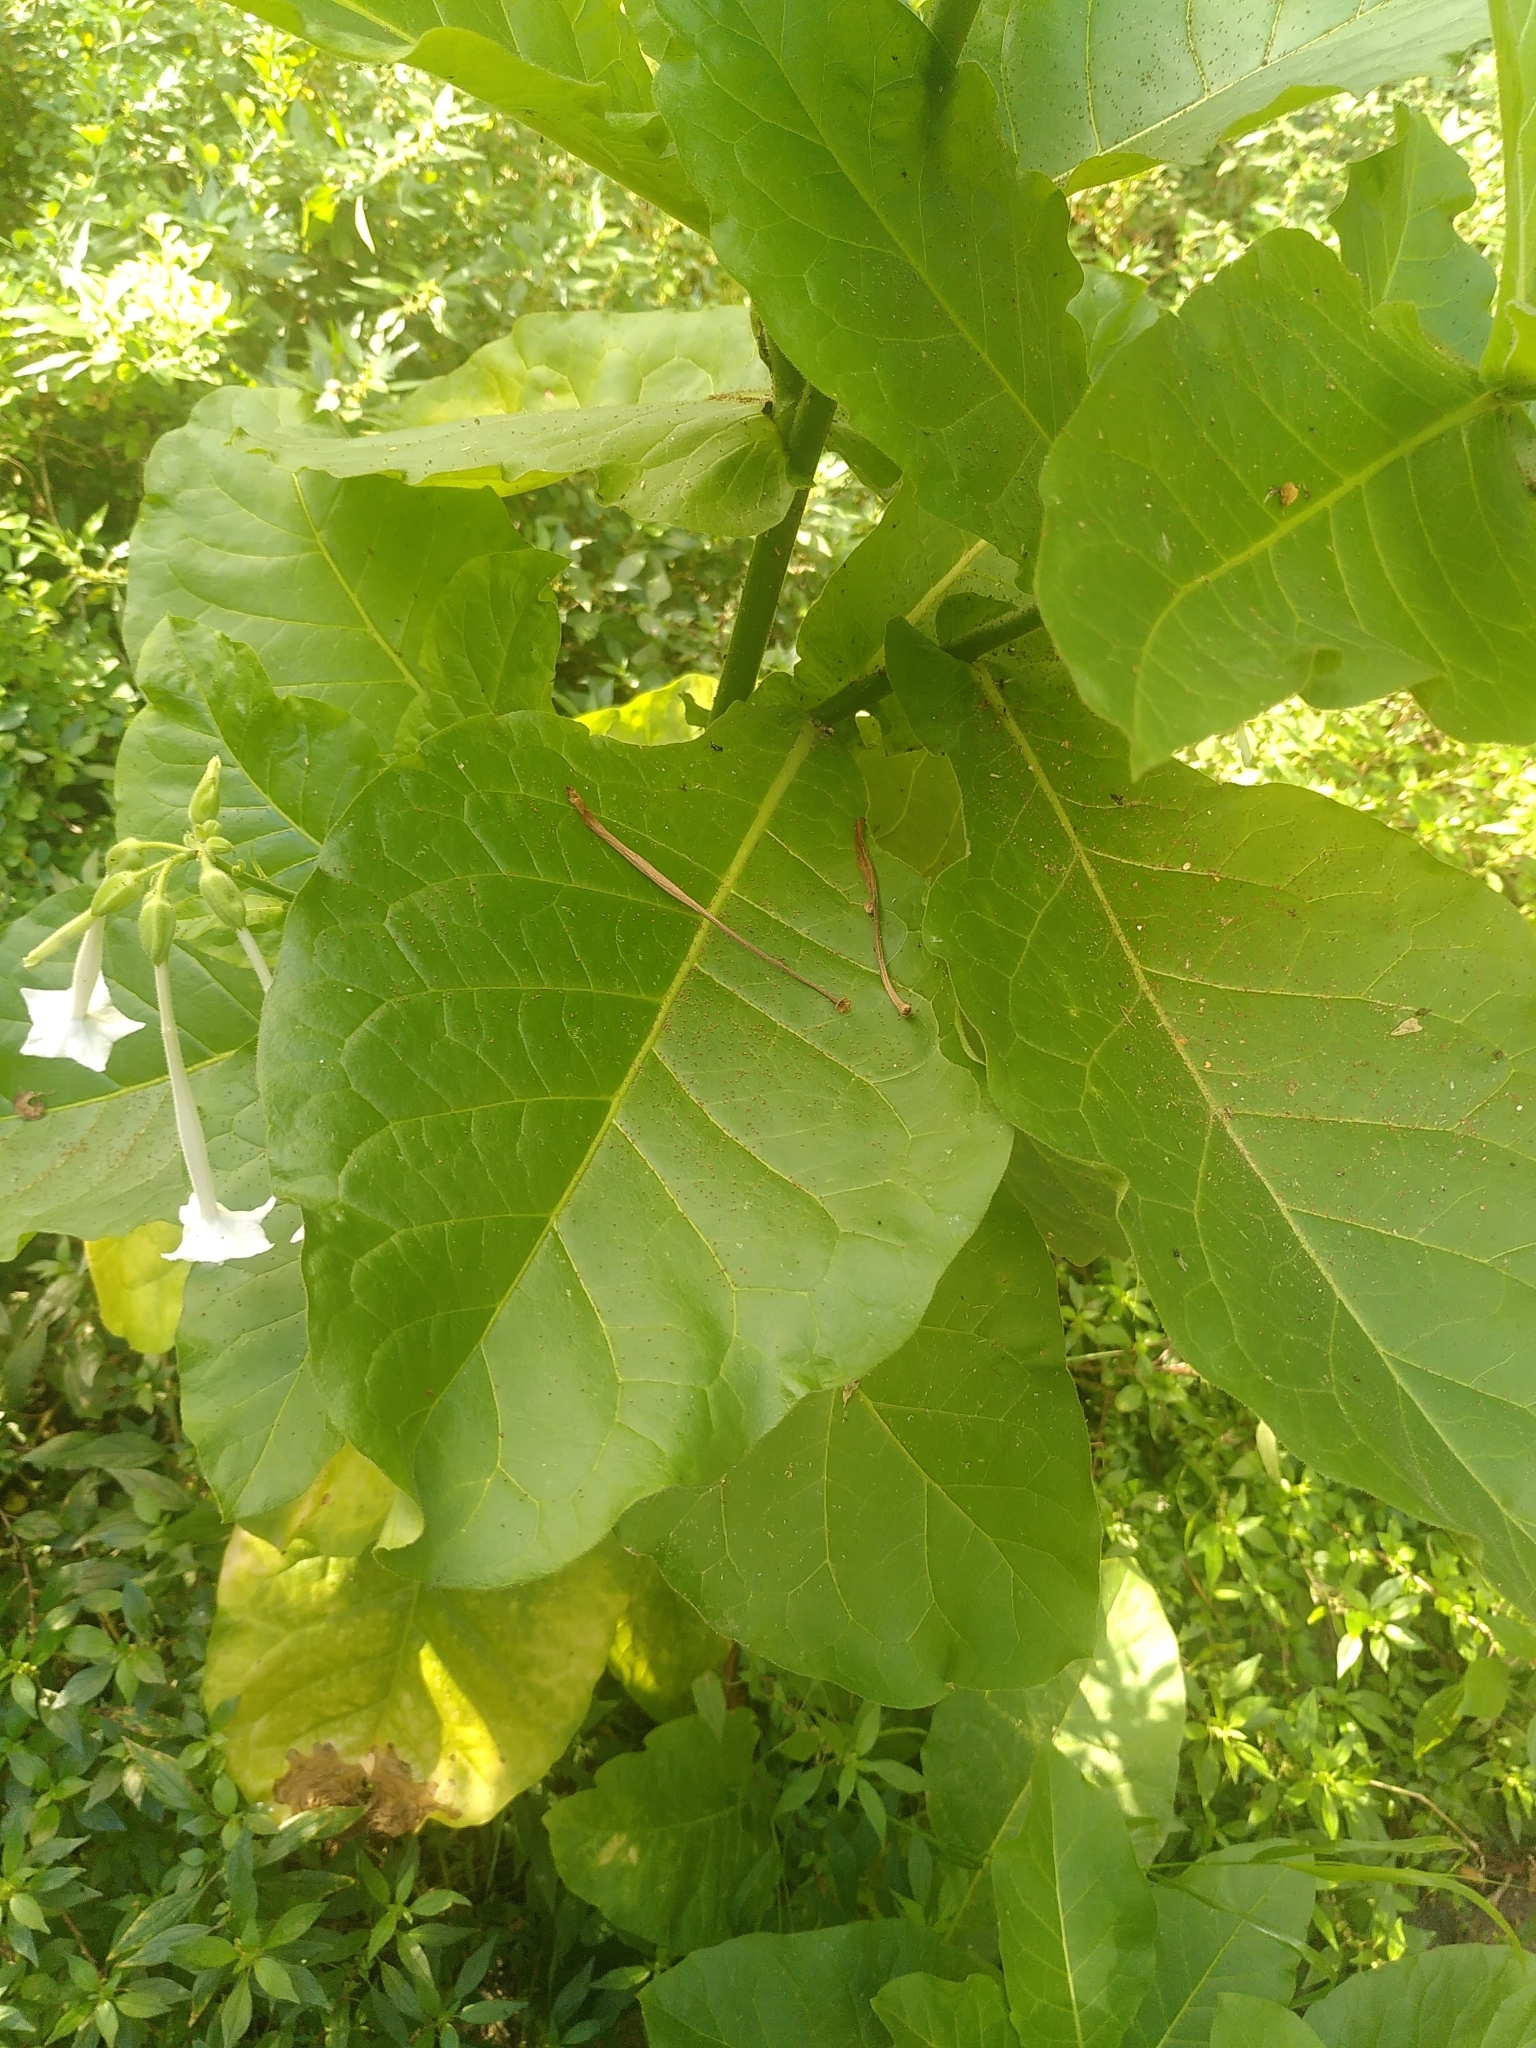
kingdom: Plantae
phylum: Tracheophyta
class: Magnoliopsida
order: Solanales
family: Solanaceae
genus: Nicotiana
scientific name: Nicotiana sylvestris
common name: Flowering tobacco
